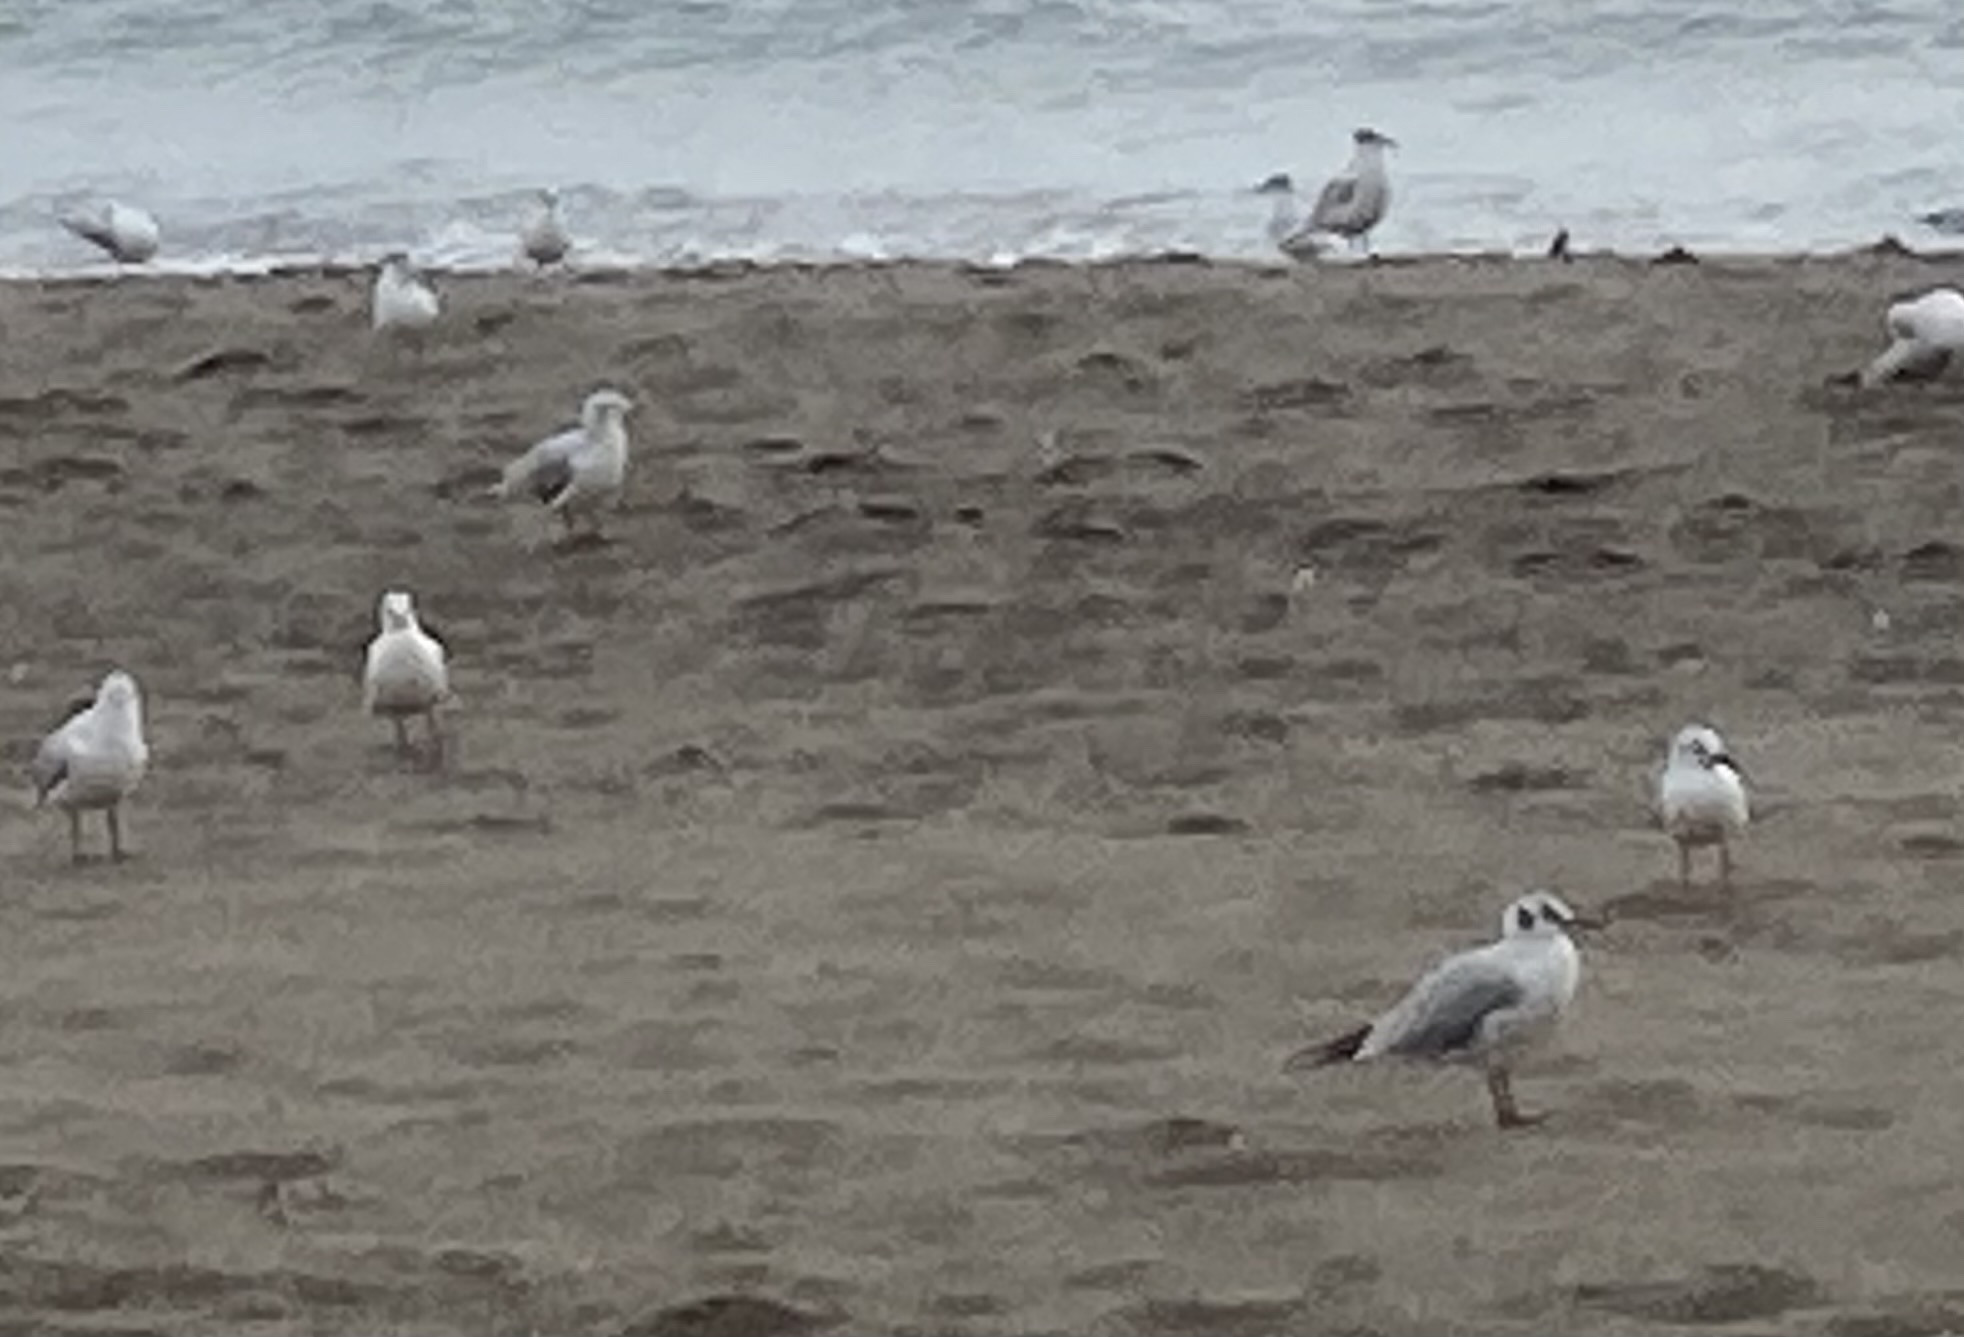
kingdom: Animalia
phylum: Chordata
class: Aves
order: Charadriiformes
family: Laridae
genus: Chroicocephalus
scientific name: Chroicocephalus ridibundus
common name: Black-headed gull
